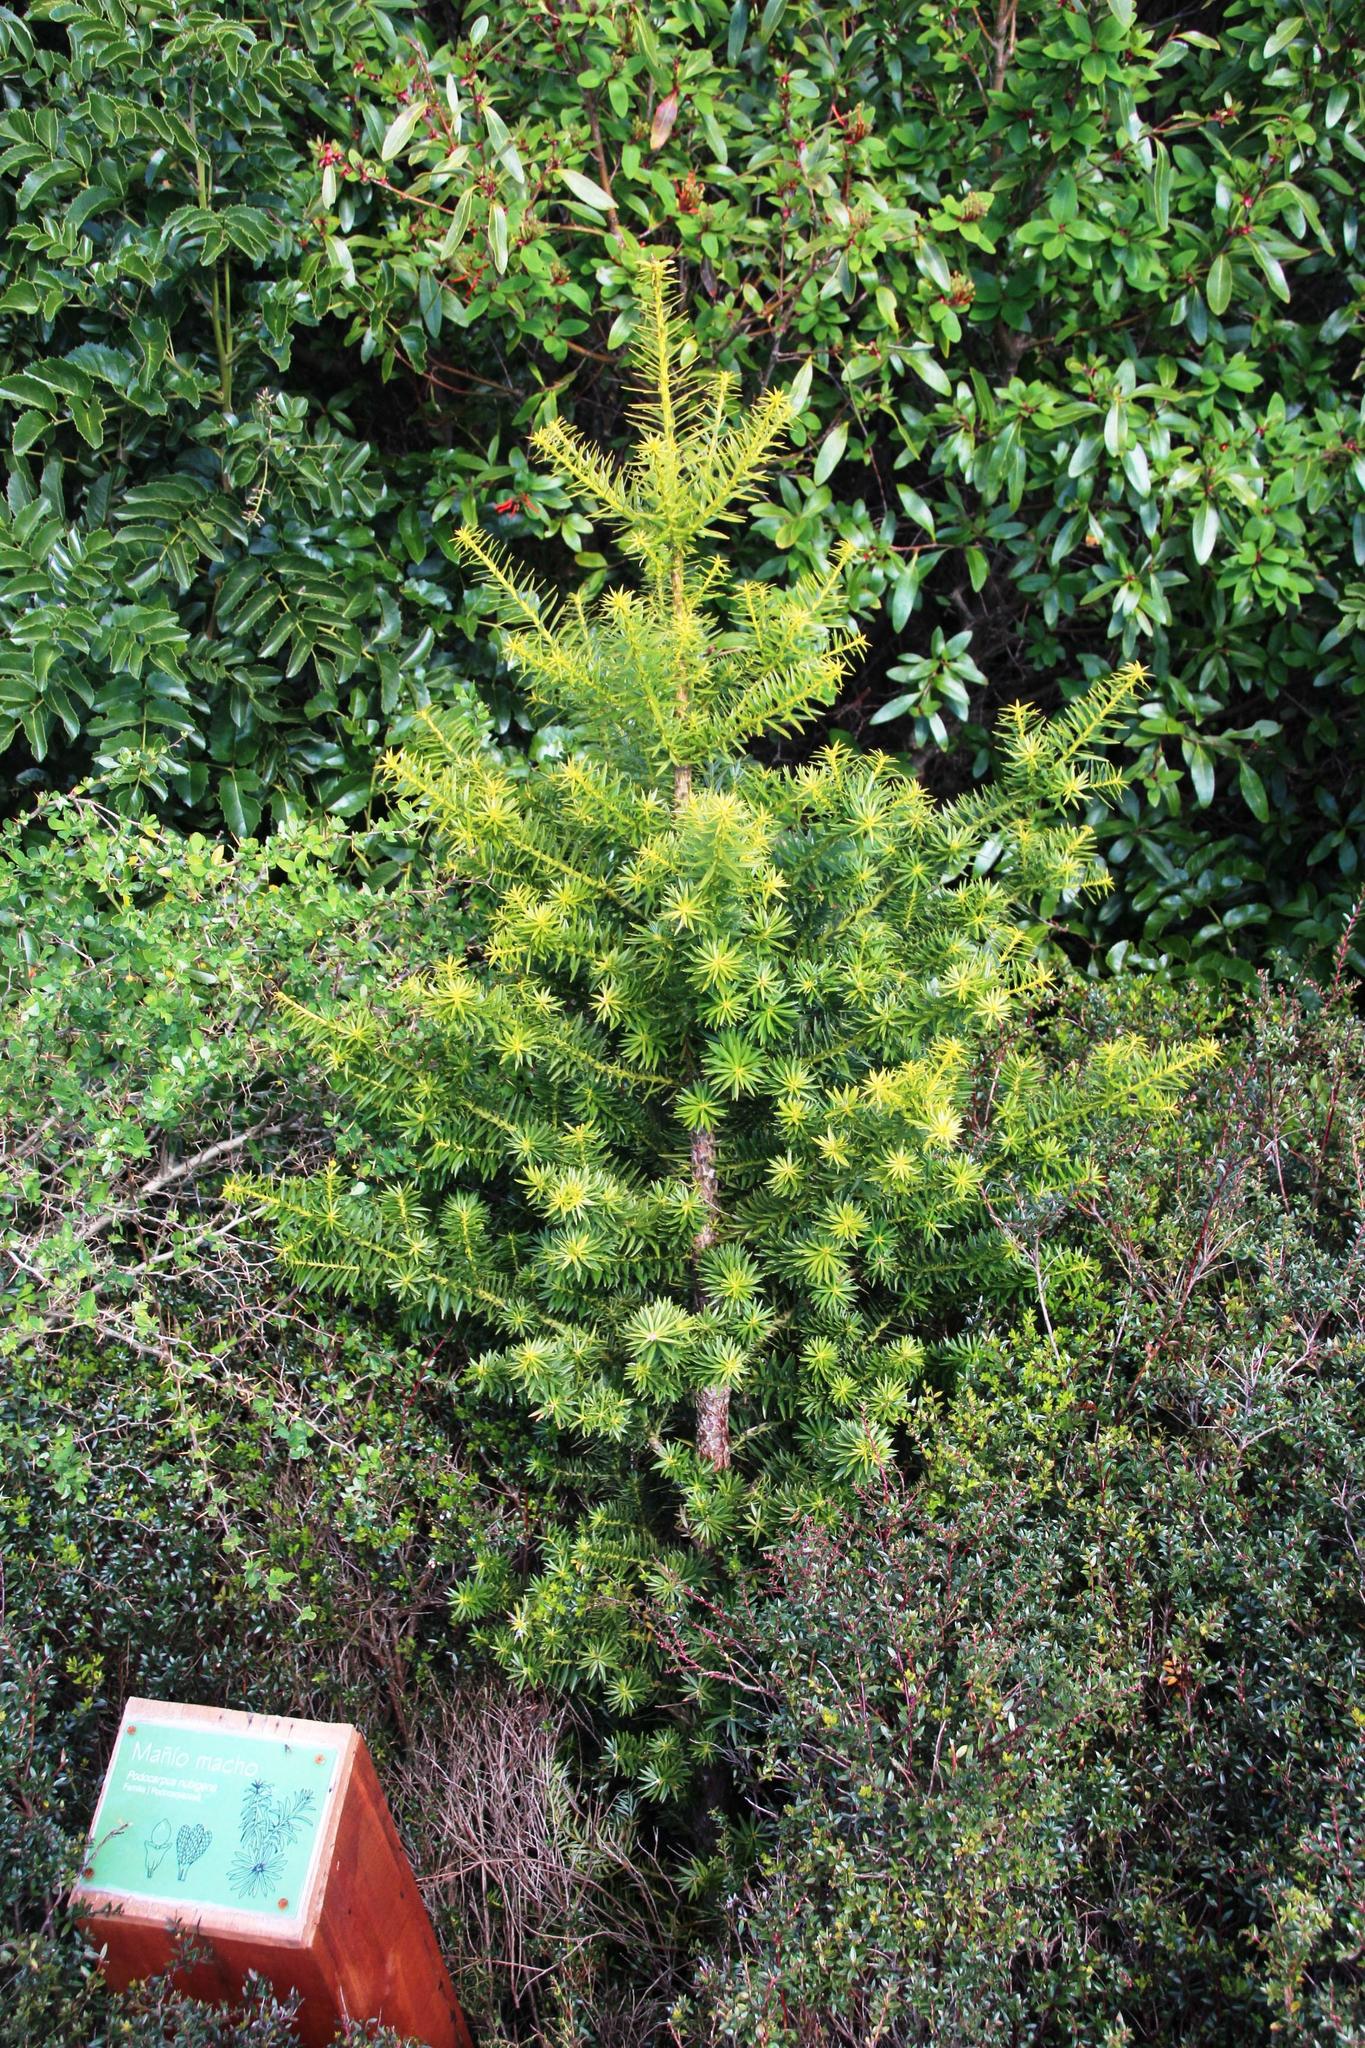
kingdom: Plantae
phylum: Tracheophyta
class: Pinopsida
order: Pinales
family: Podocarpaceae
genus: Podocarpus
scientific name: Podocarpus nubigenus
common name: Cloud podocarp
